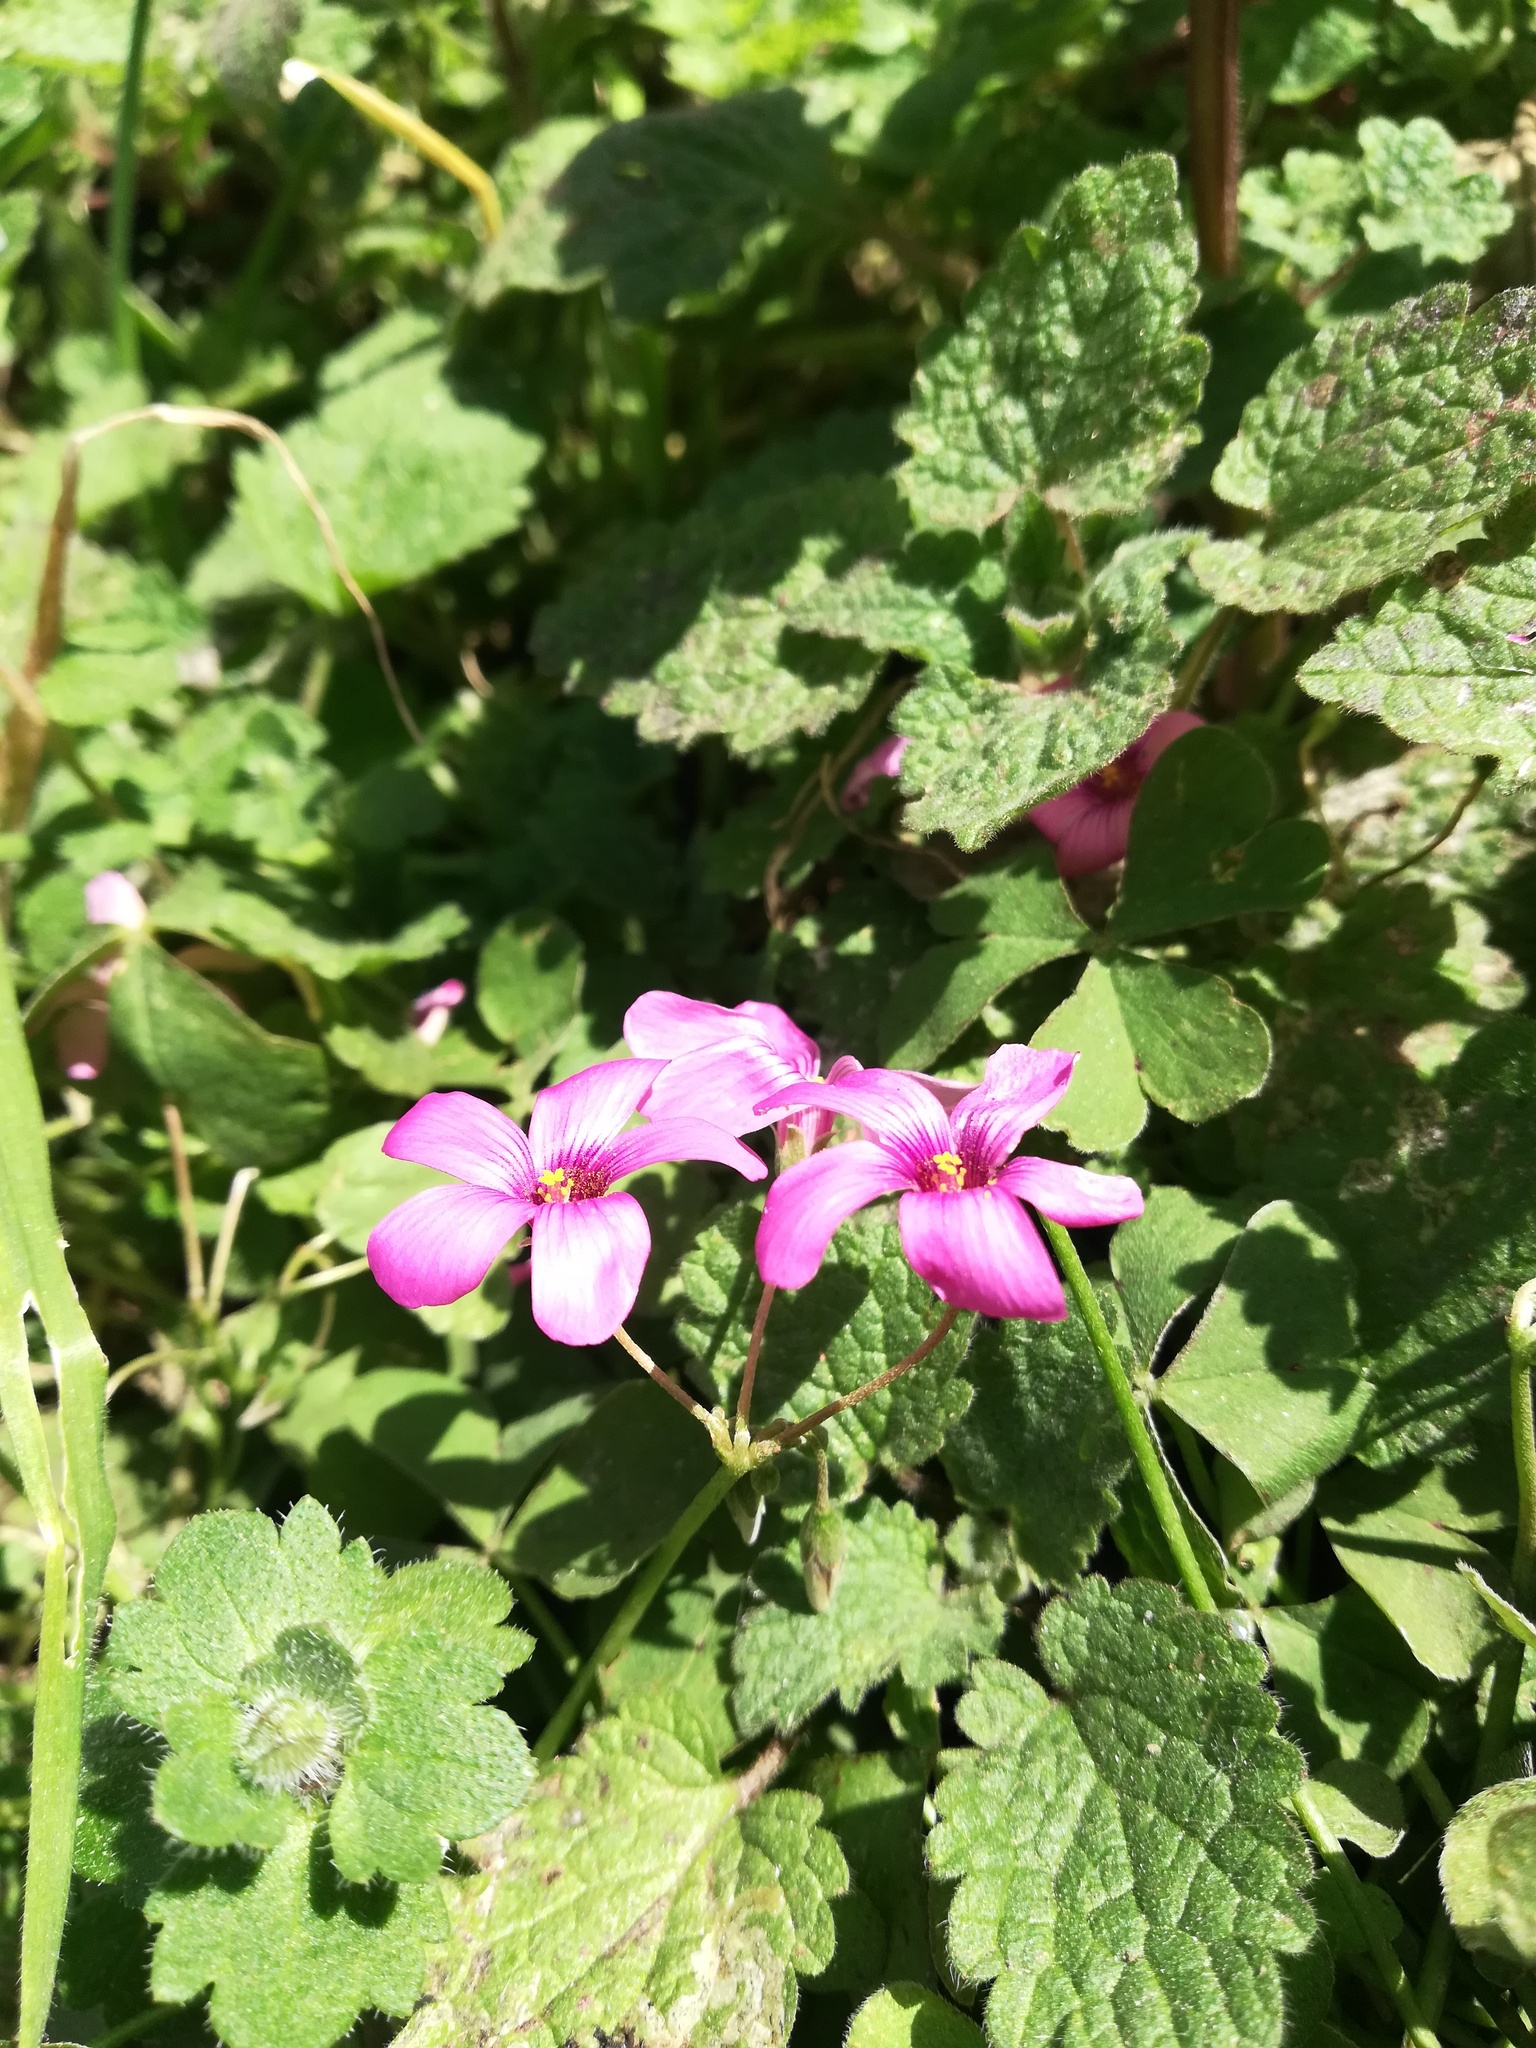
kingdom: Plantae
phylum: Tracheophyta
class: Magnoliopsida
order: Oxalidales
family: Oxalidaceae
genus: Oxalis
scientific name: Oxalis articulata
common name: Pink-sorrel
